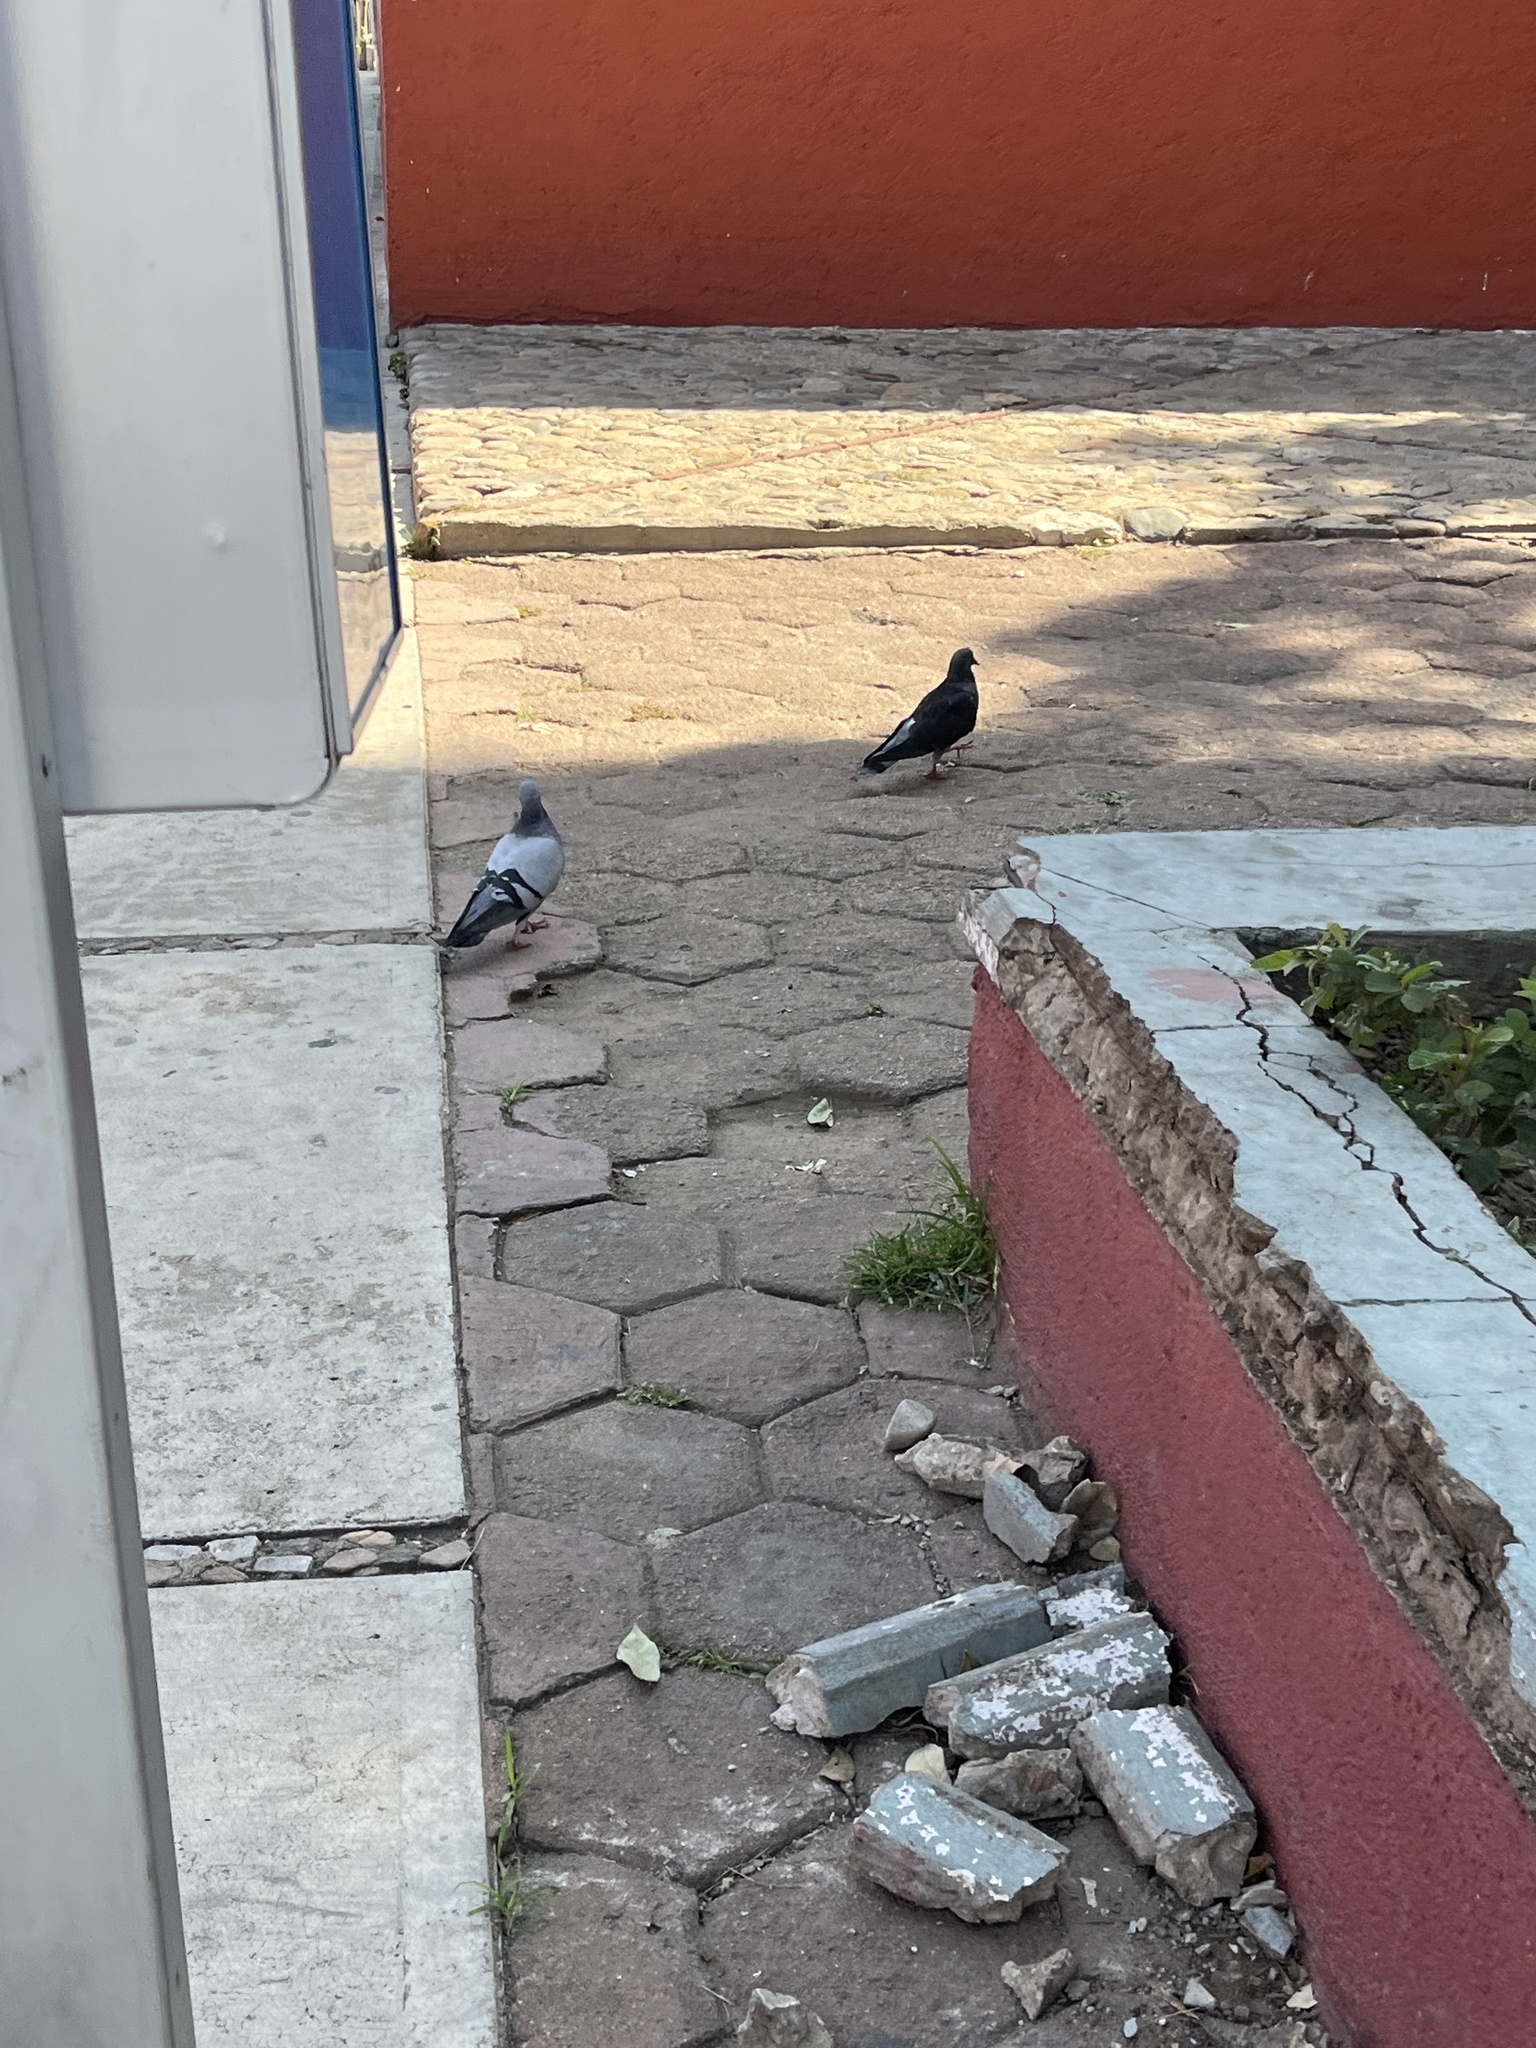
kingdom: Animalia
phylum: Chordata
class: Aves
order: Columbiformes
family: Columbidae
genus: Columba
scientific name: Columba livia
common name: Rock pigeon
